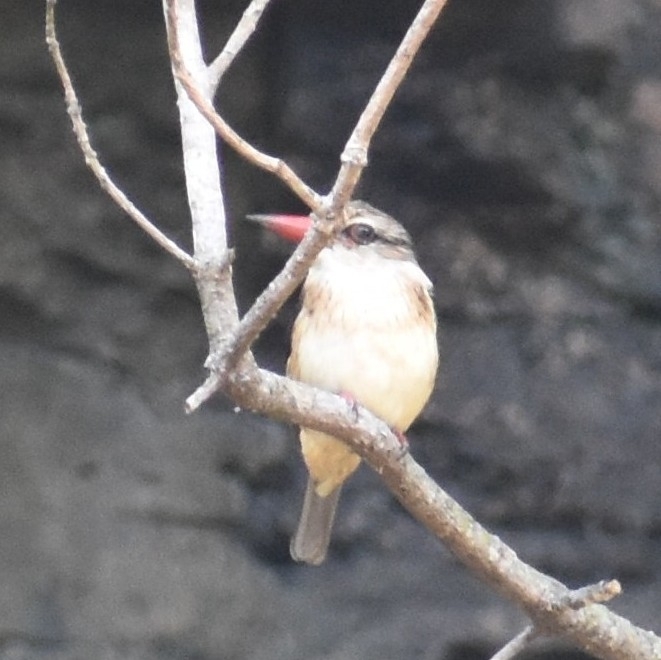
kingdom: Animalia
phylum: Chordata
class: Aves
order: Coraciiformes
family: Alcedinidae
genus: Halcyon
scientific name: Halcyon albiventris
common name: Brown-hooded kingfisher
